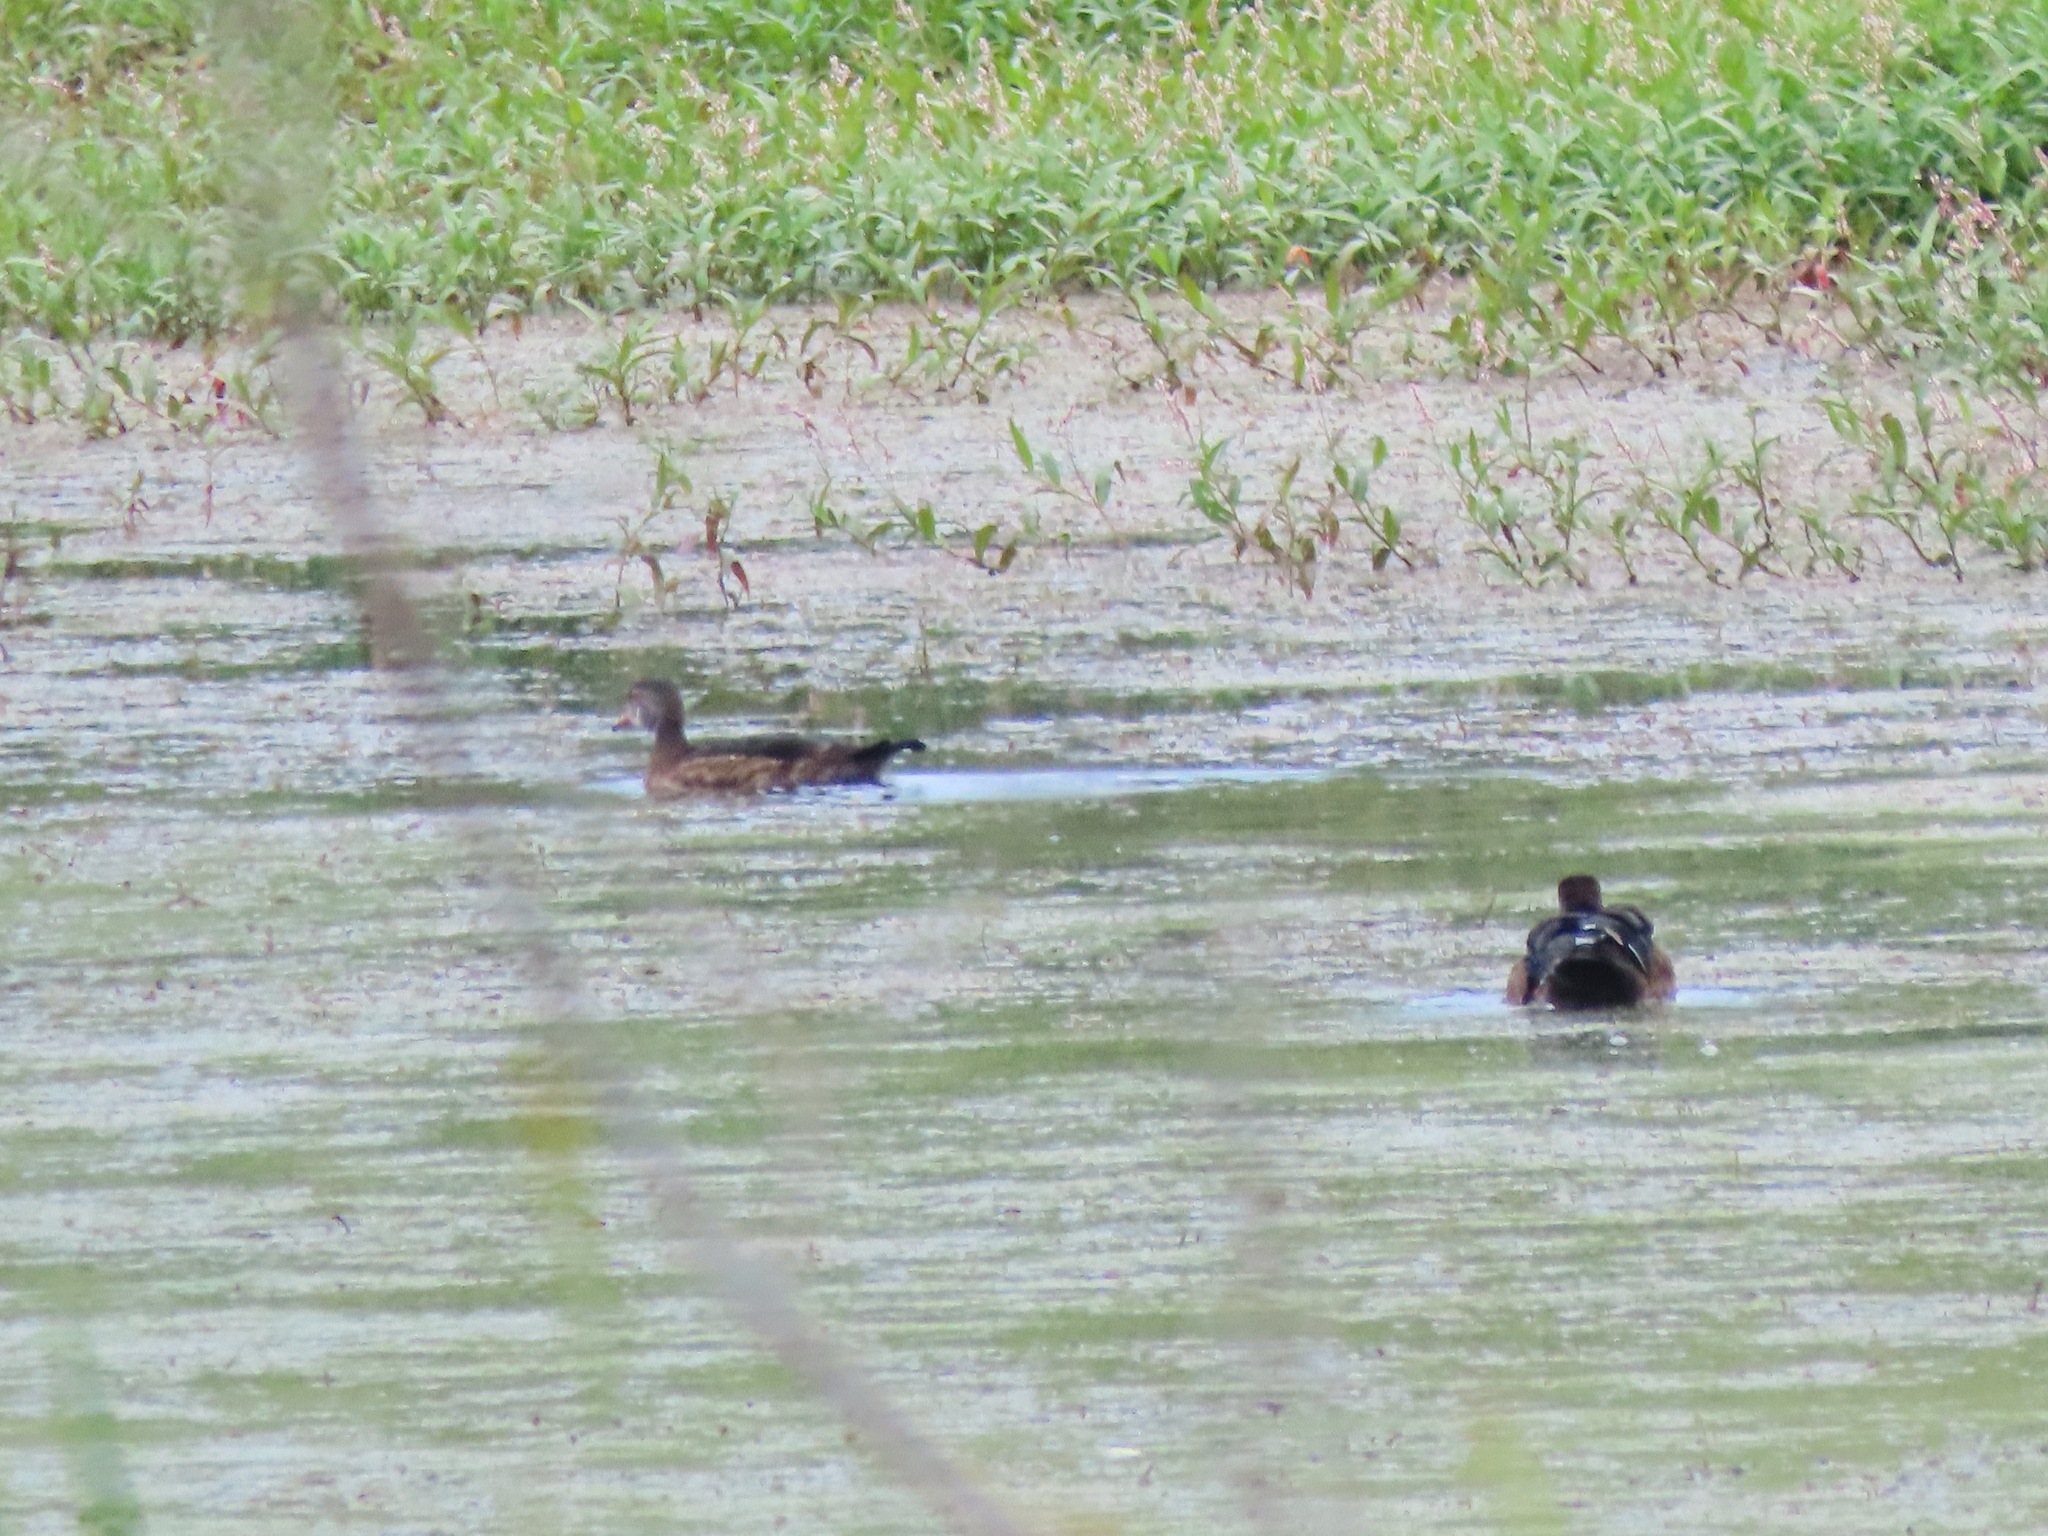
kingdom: Animalia
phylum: Chordata
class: Aves
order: Anseriformes
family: Anatidae
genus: Aix
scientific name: Aix sponsa
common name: Wood duck
